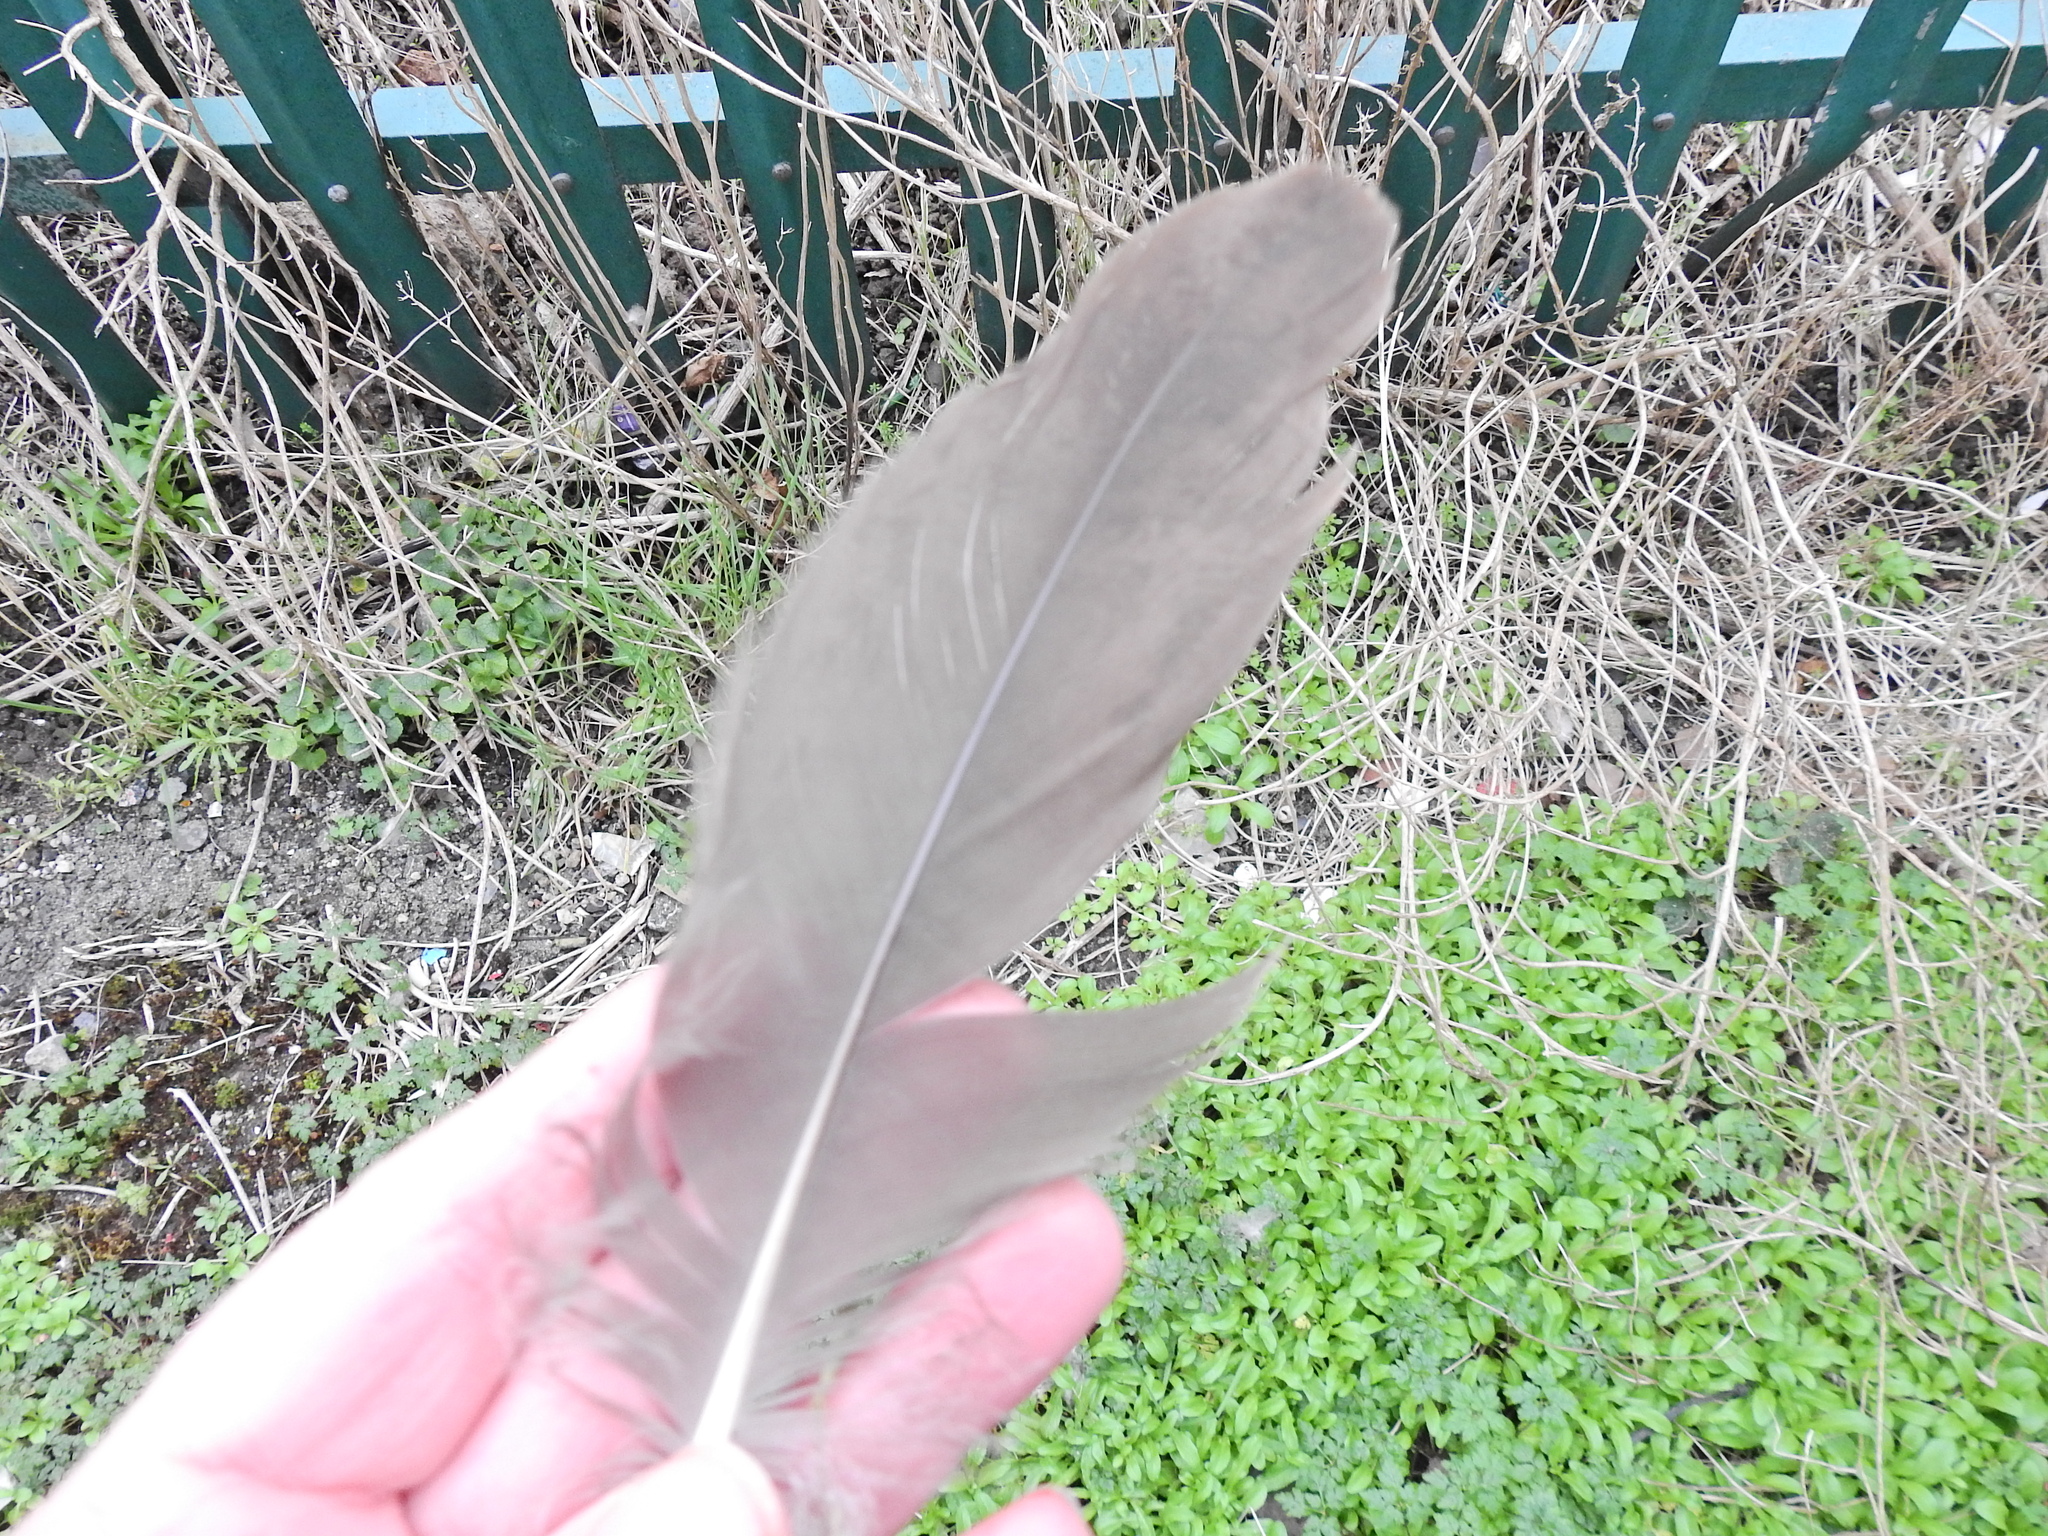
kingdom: Animalia
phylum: Chordata
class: Aves
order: Anseriformes
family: Anatidae
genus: Branta
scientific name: Branta canadensis
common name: Canada goose
